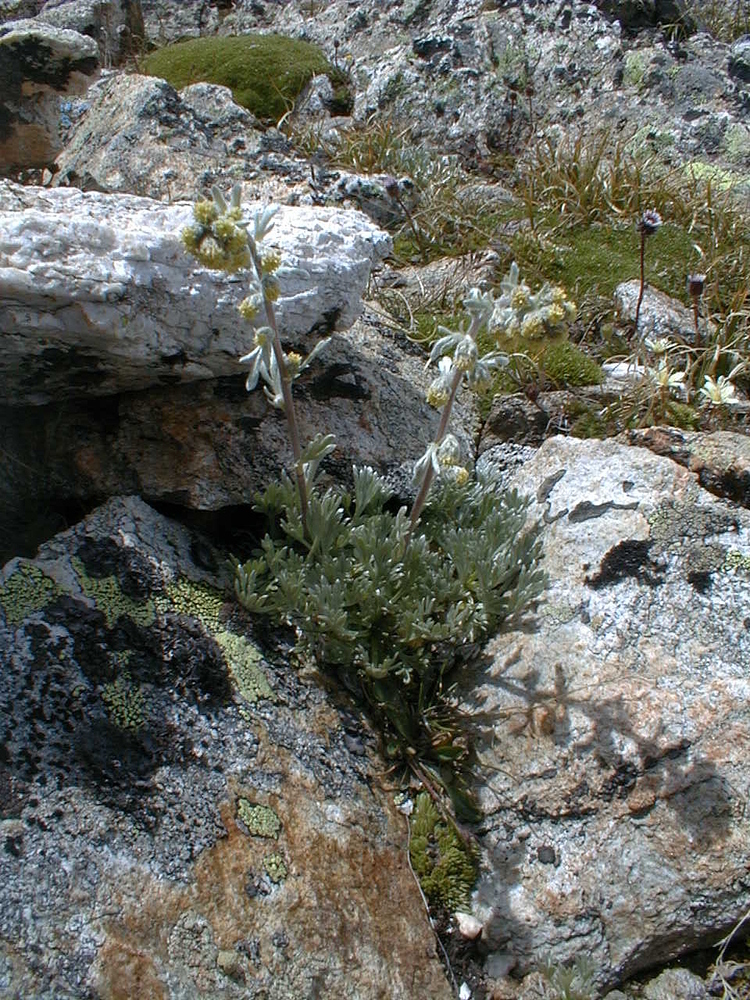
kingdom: Plantae
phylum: Tracheophyta
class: Magnoliopsida
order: Asterales
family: Asteraceae
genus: Artemisia
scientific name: Artemisia umbelliformis
